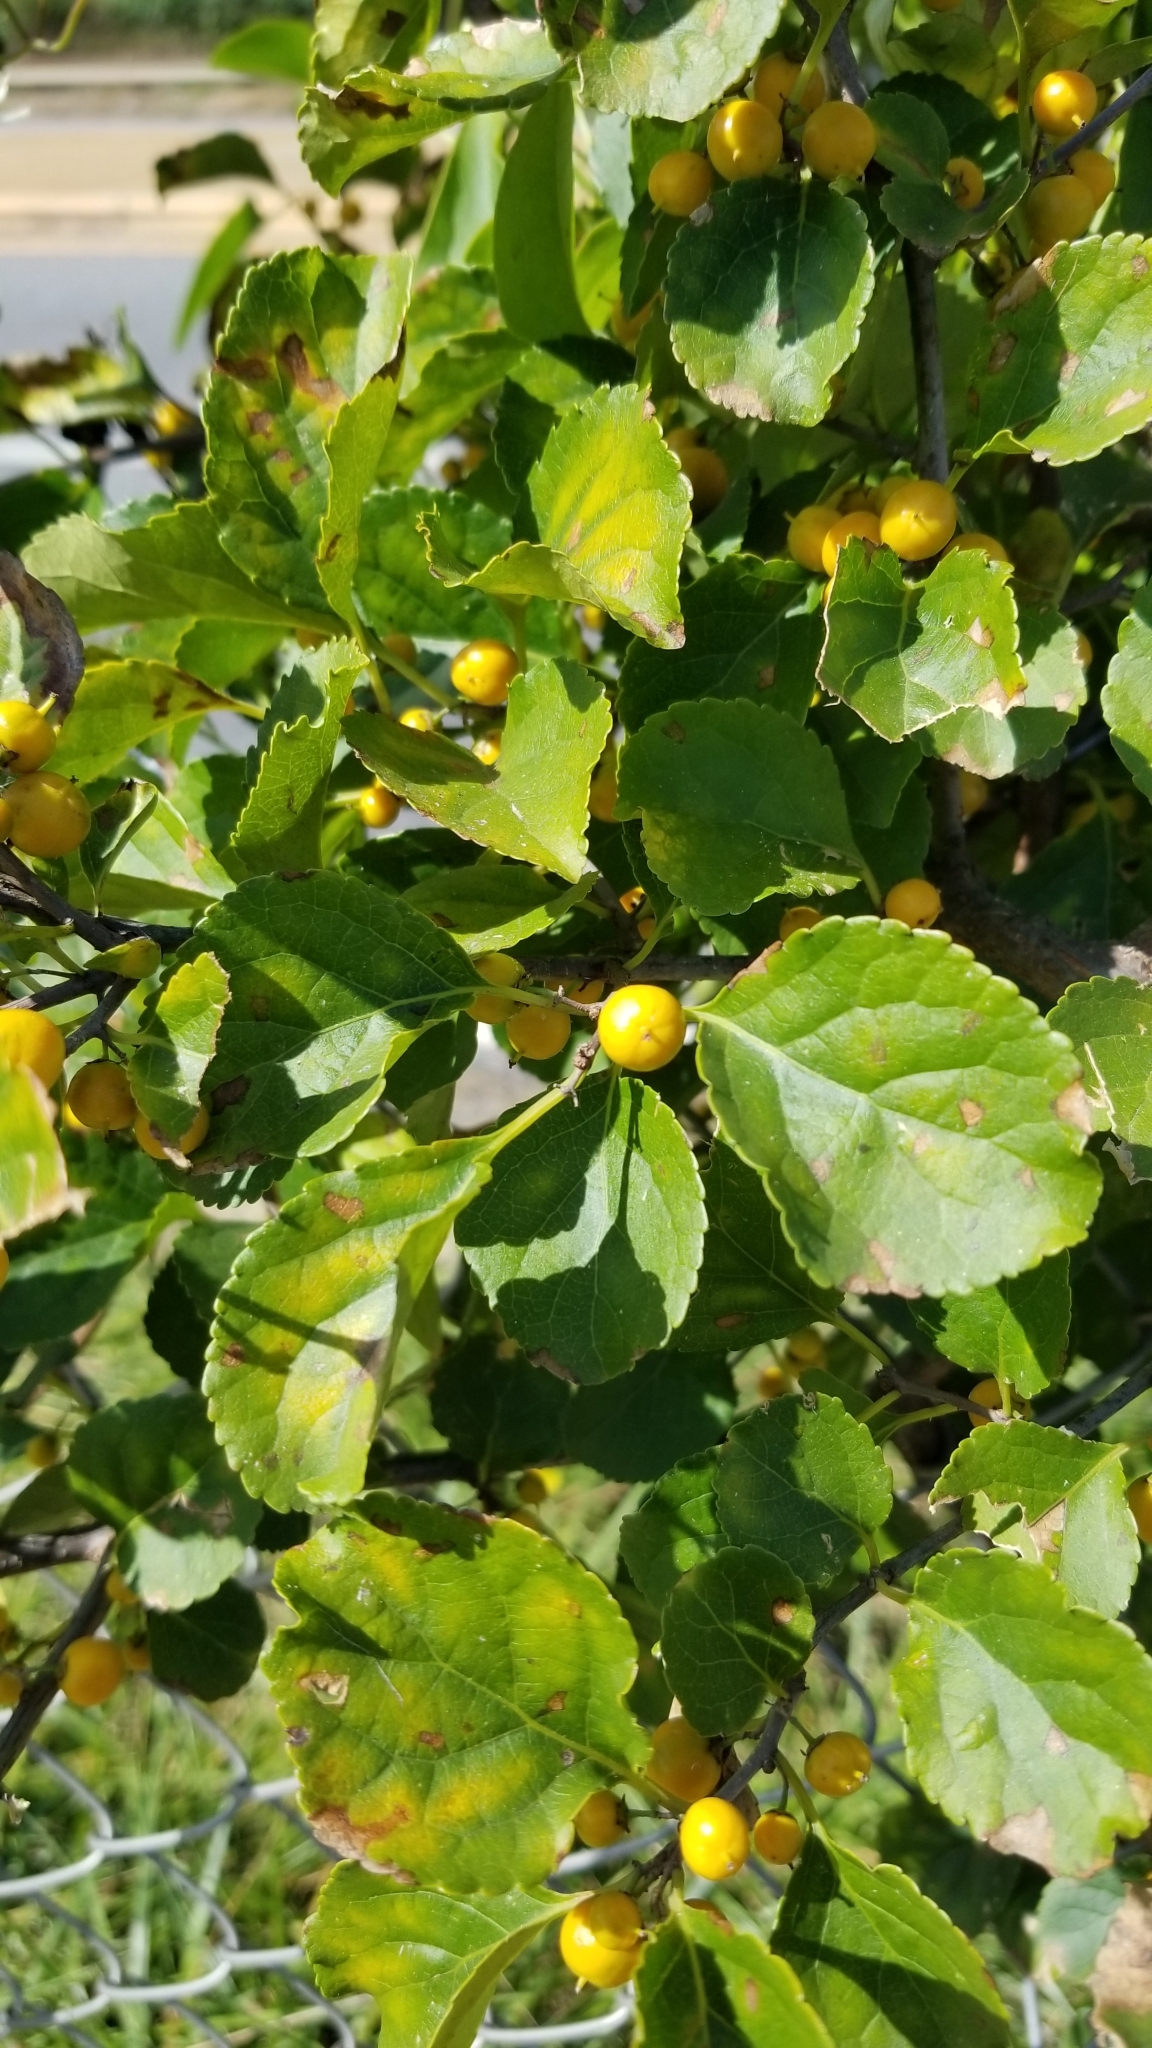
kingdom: Plantae
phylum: Tracheophyta
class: Magnoliopsida
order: Celastrales
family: Celastraceae
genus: Celastrus
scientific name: Celastrus orbiculatus
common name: Oriental bittersweet
